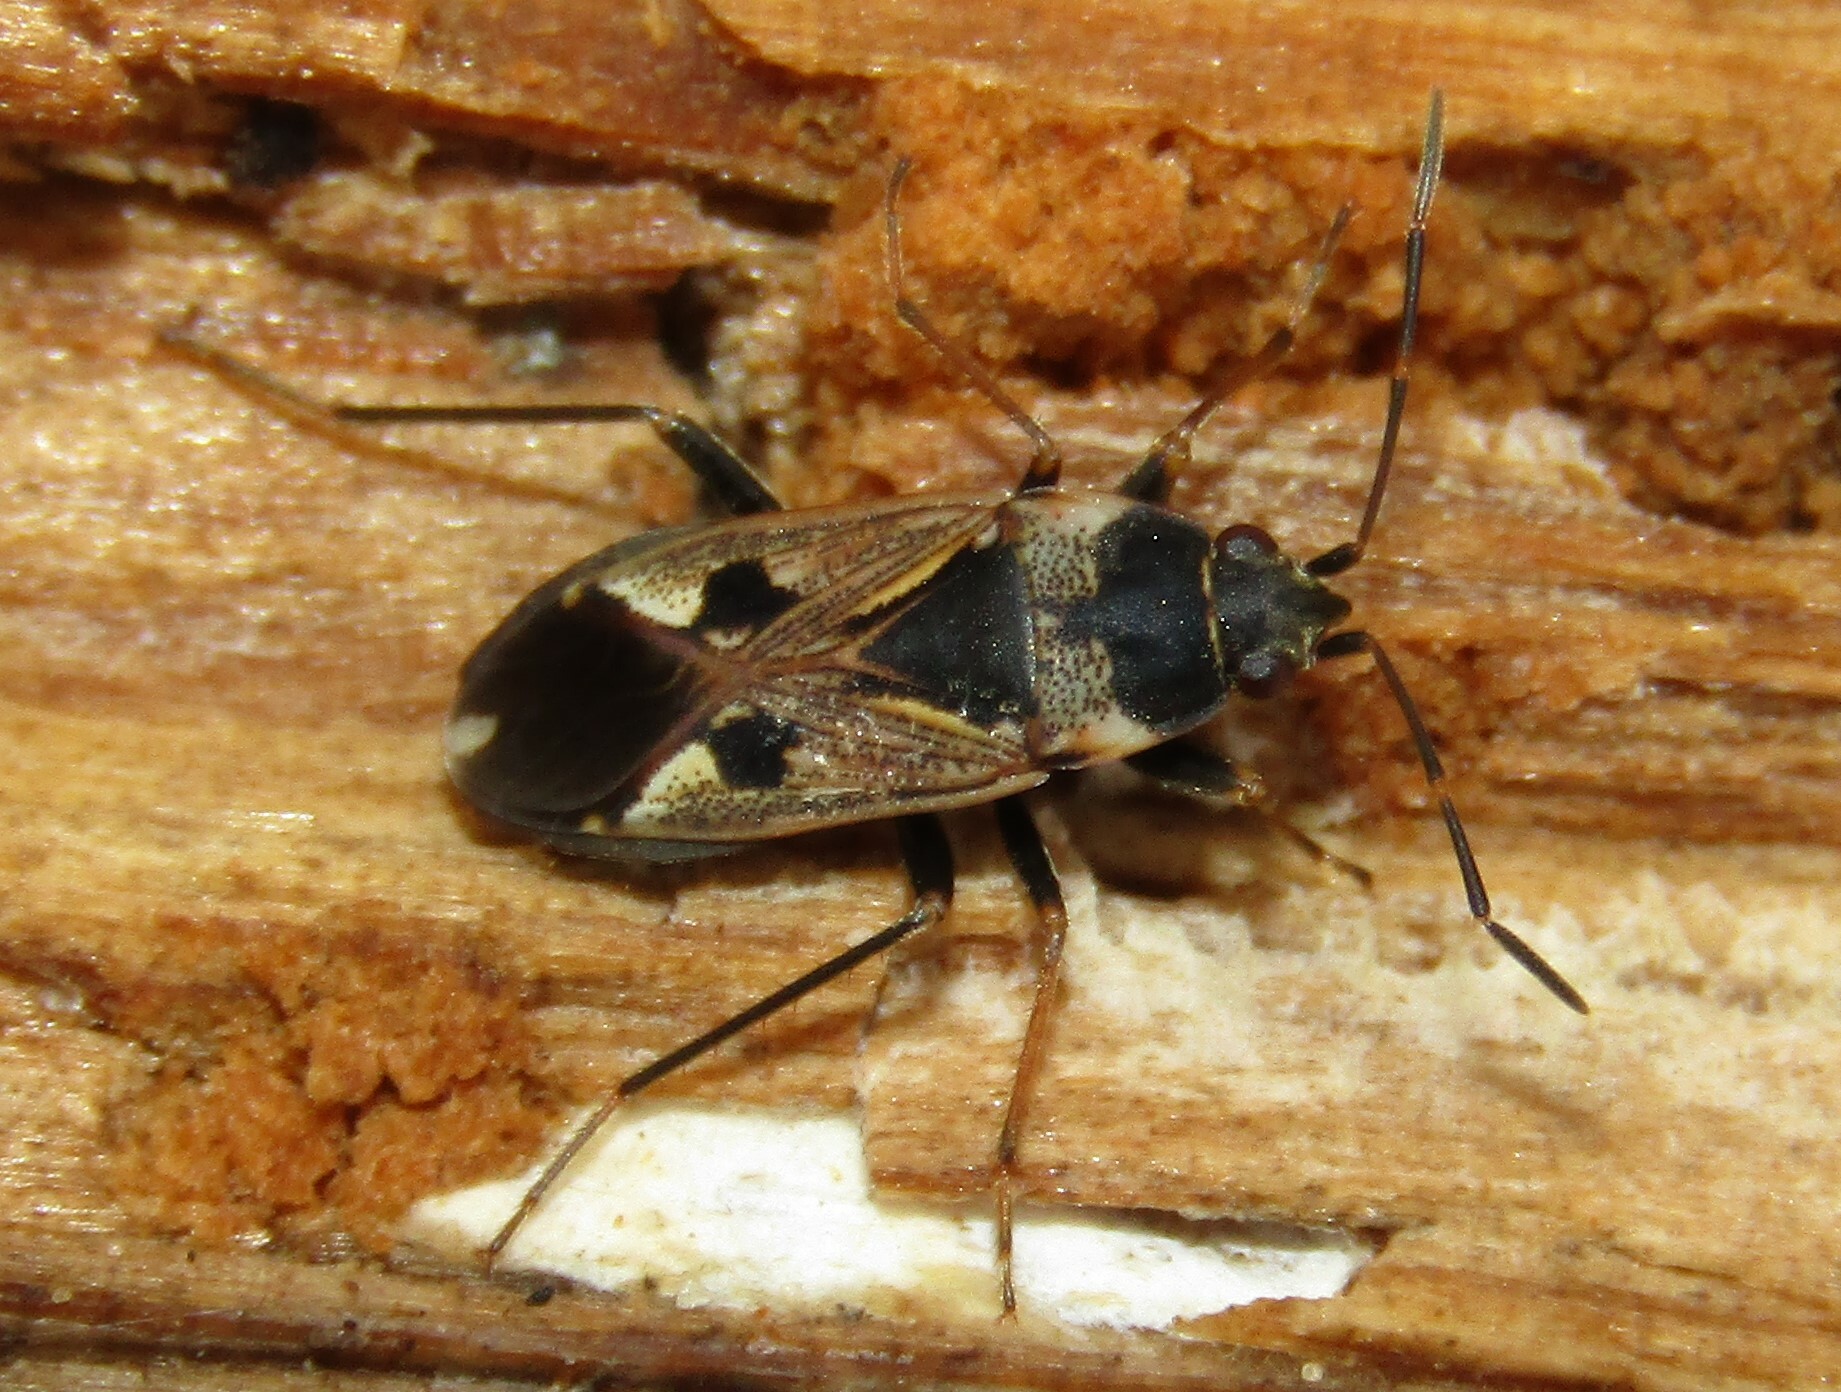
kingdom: Animalia
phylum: Arthropoda
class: Insecta
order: Hemiptera
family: Rhyparochromidae
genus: Rhyparochromus
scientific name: Rhyparochromus vulgaris
